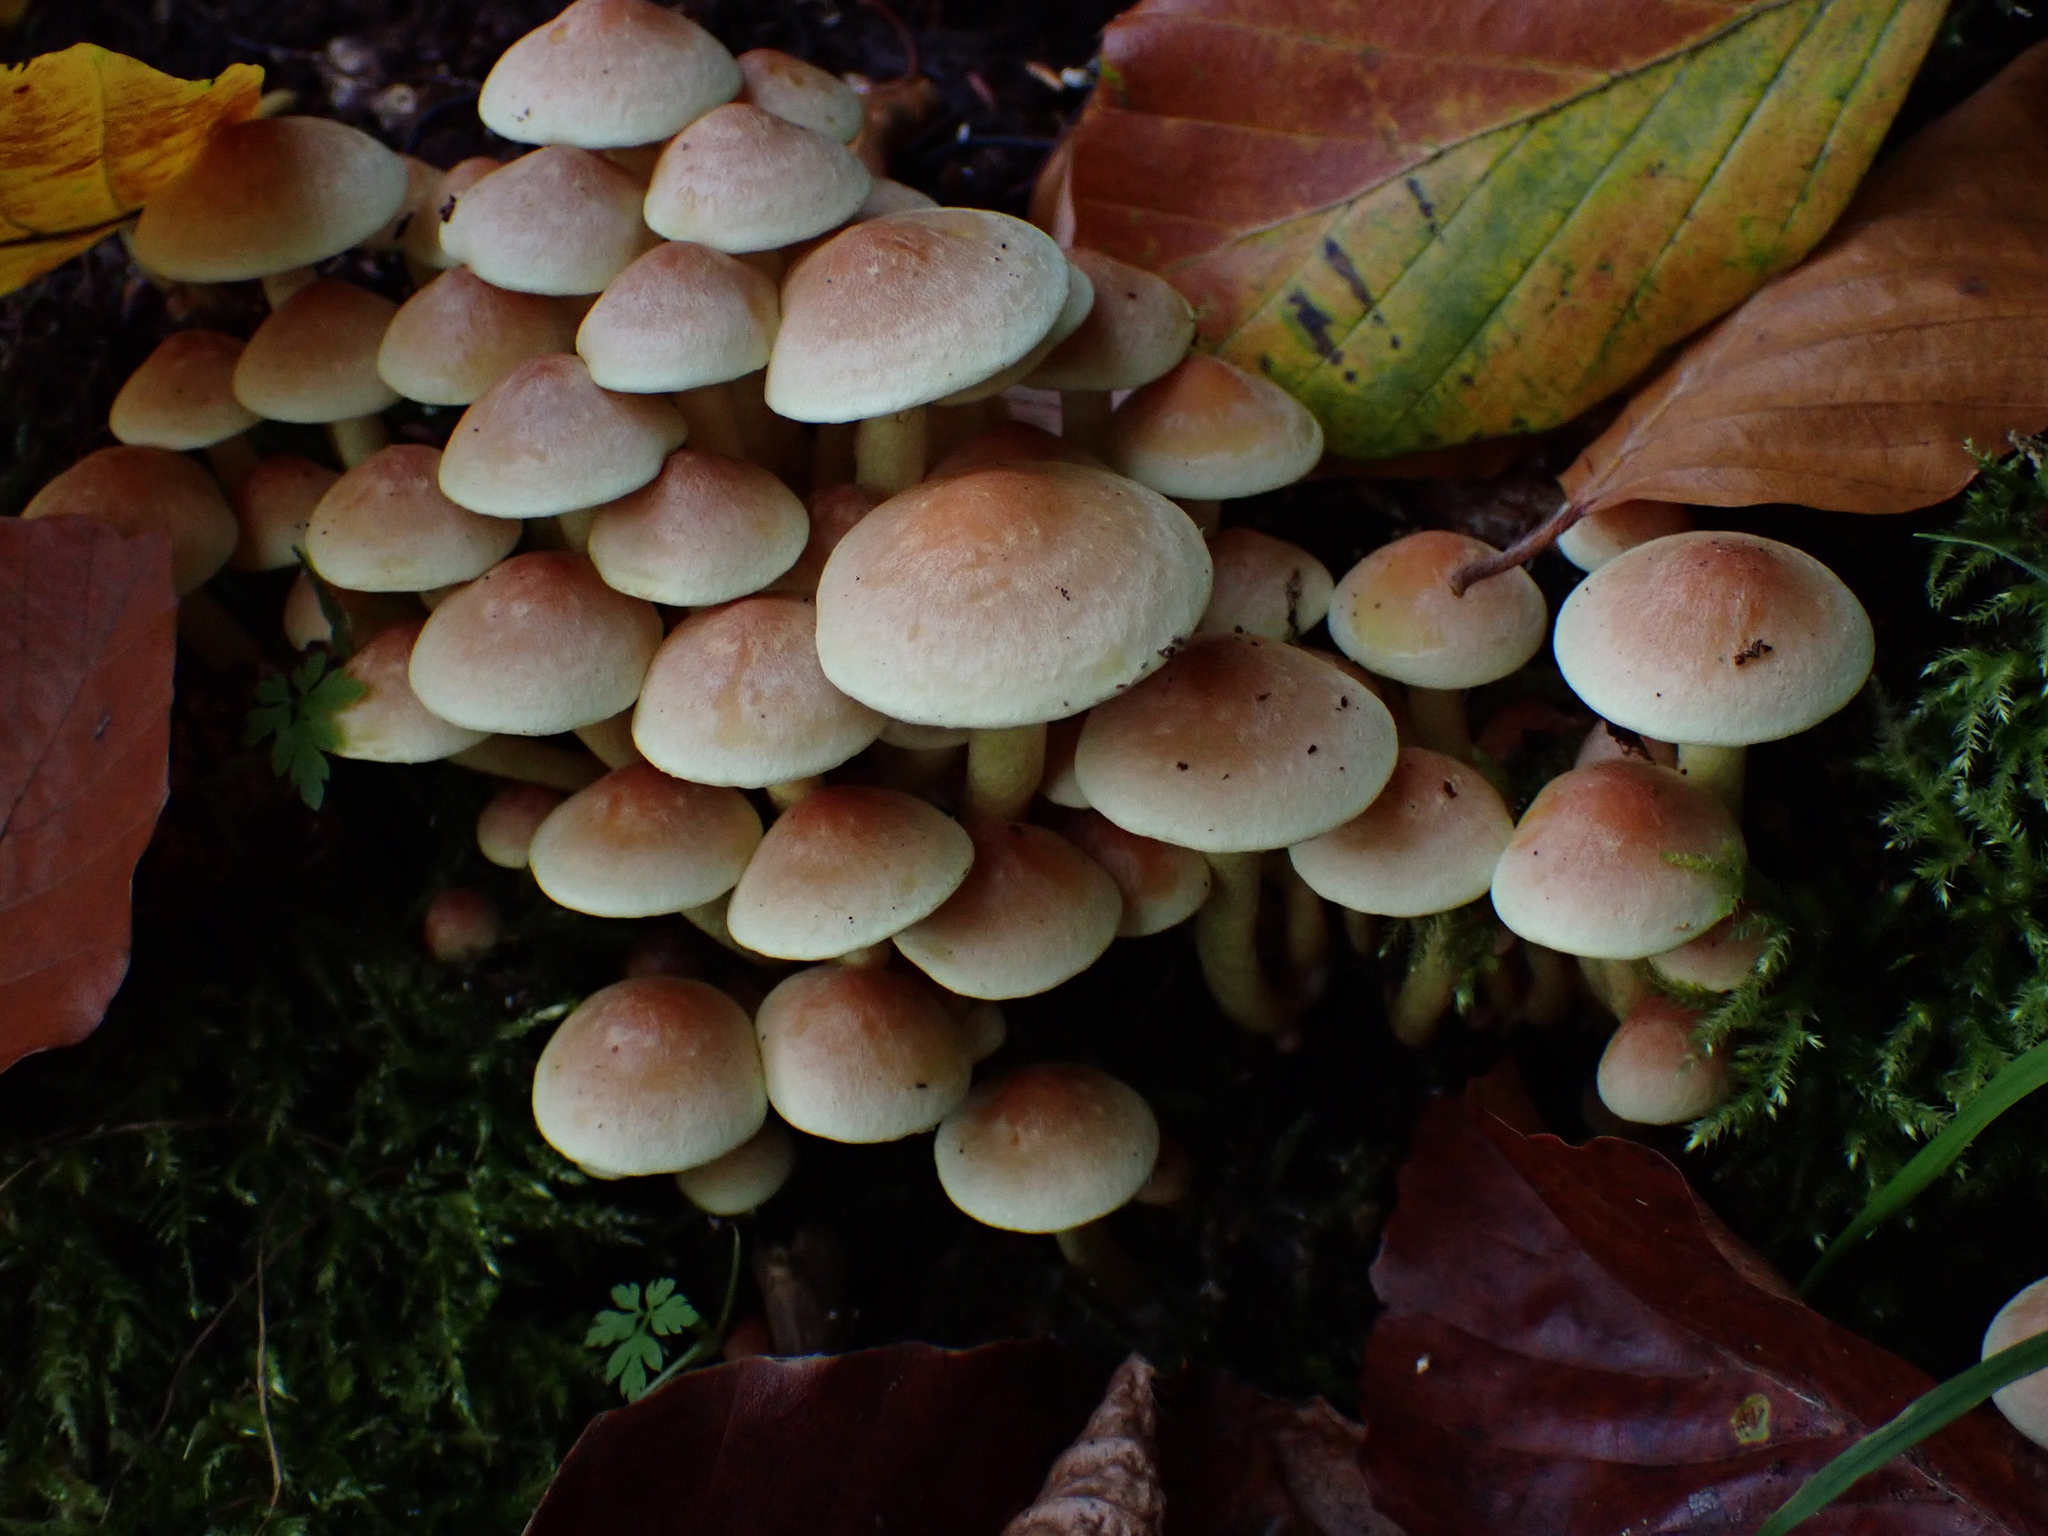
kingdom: Fungi
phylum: Basidiomycota
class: Agaricomycetes
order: Agaricales
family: Strophariaceae
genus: Hypholoma
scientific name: Hypholoma fasciculare
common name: Sulphur tuft
